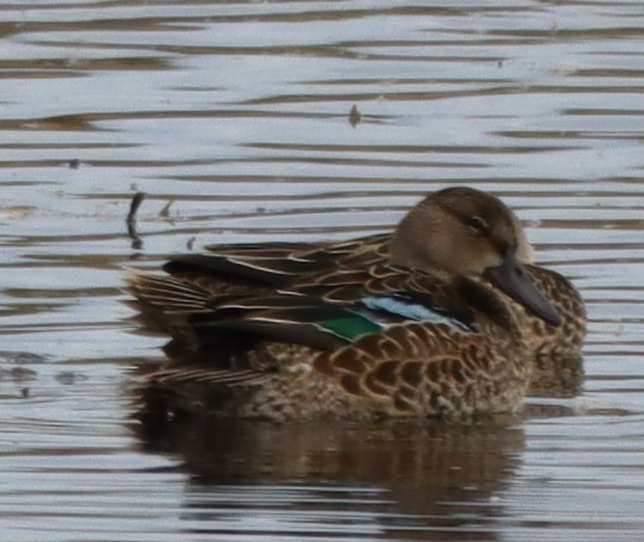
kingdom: Animalia
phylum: Chordata
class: Aves
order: Anseriformes
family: Anatidae
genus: Spatula
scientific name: Spatula discors
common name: Blue-winged teal
